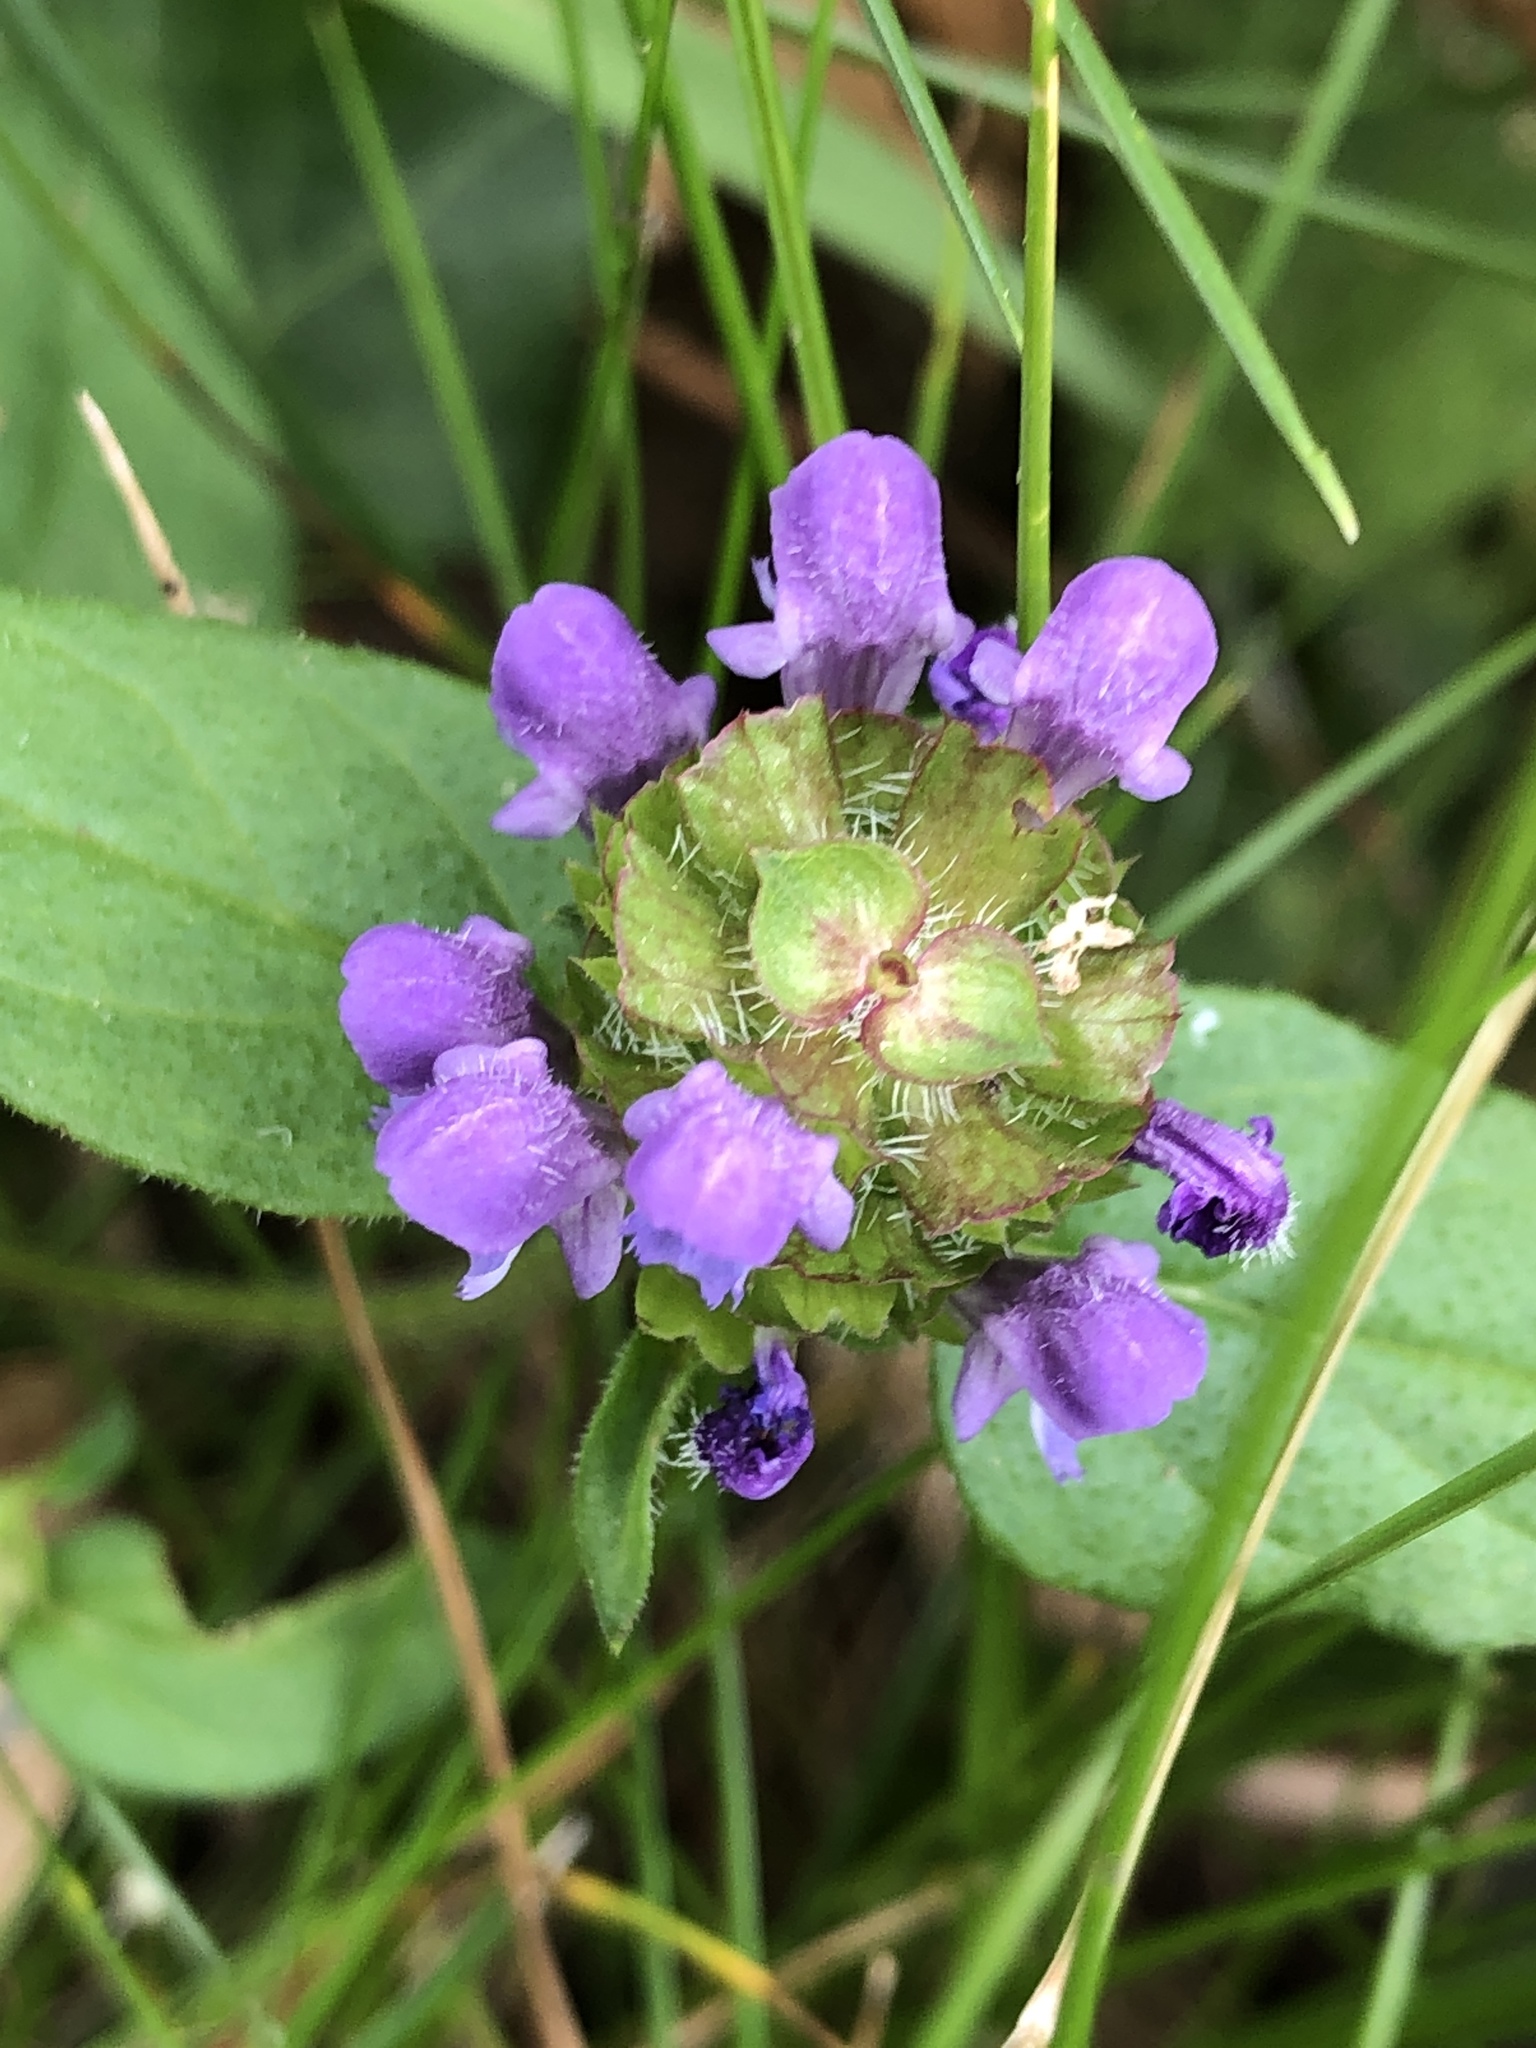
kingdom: Plantae
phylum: Tracheophyta
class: Magnoliopsida
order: Lamiales
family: Lamiaceae
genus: Prunella
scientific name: Prunella vulgaris
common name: Heal-all
